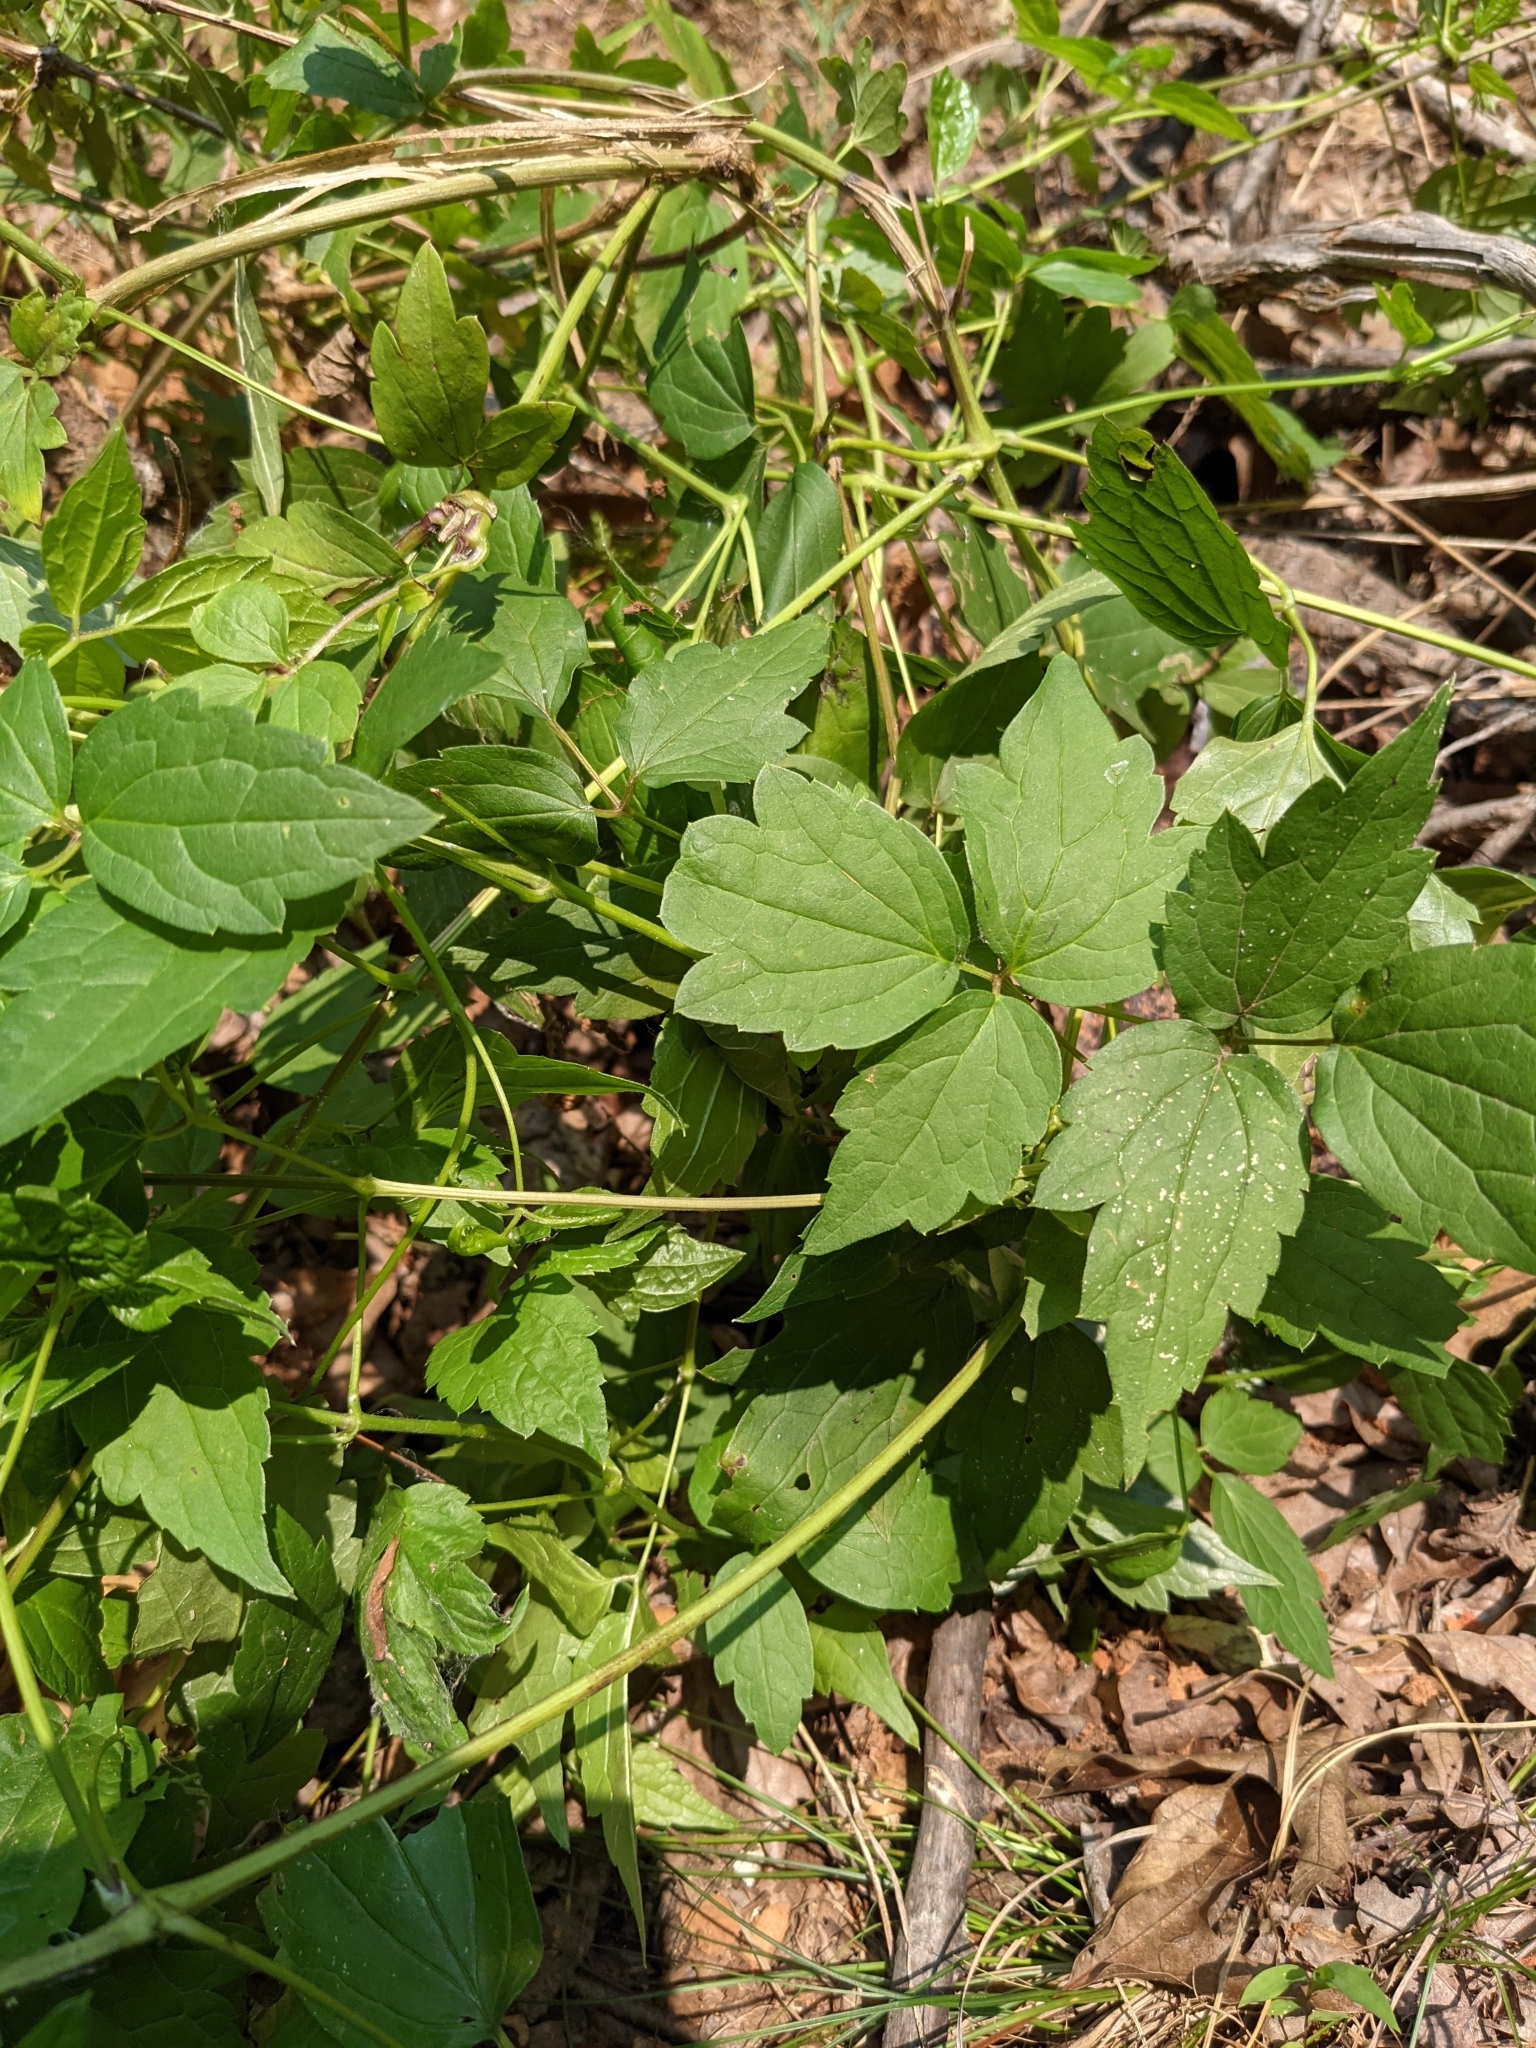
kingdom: Plantae
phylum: Tracheophyta
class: Magnoliopsida
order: Ranunculales
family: Ranunculaceae
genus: Clematis
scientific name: Clematis virginiana
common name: Virgin's-bower
